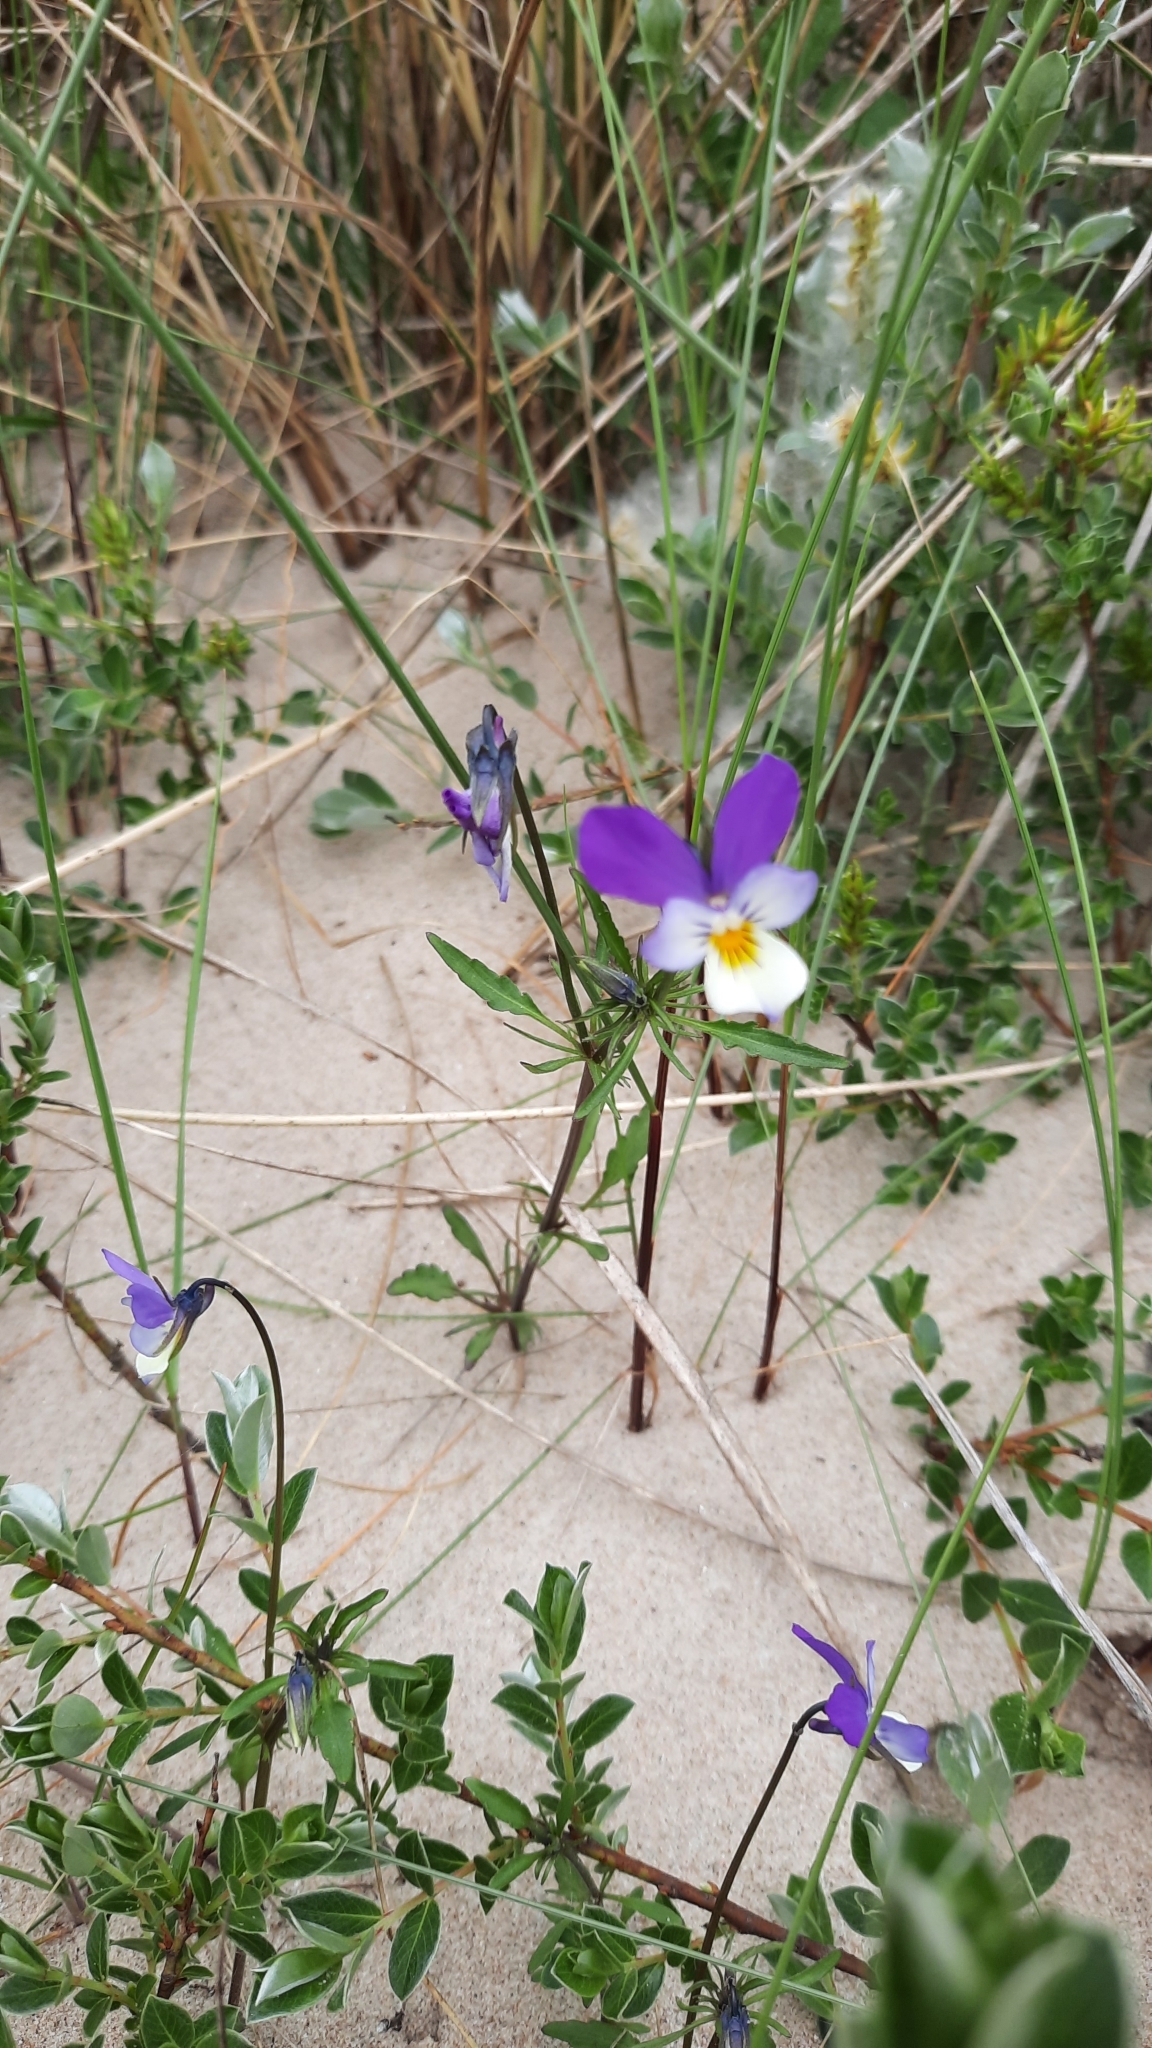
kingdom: Plantae
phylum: Tracheophyta
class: Magnoliopsida
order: Malpighiales
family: Violaceae
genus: Viola
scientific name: Viola tricolor
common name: Pansy
